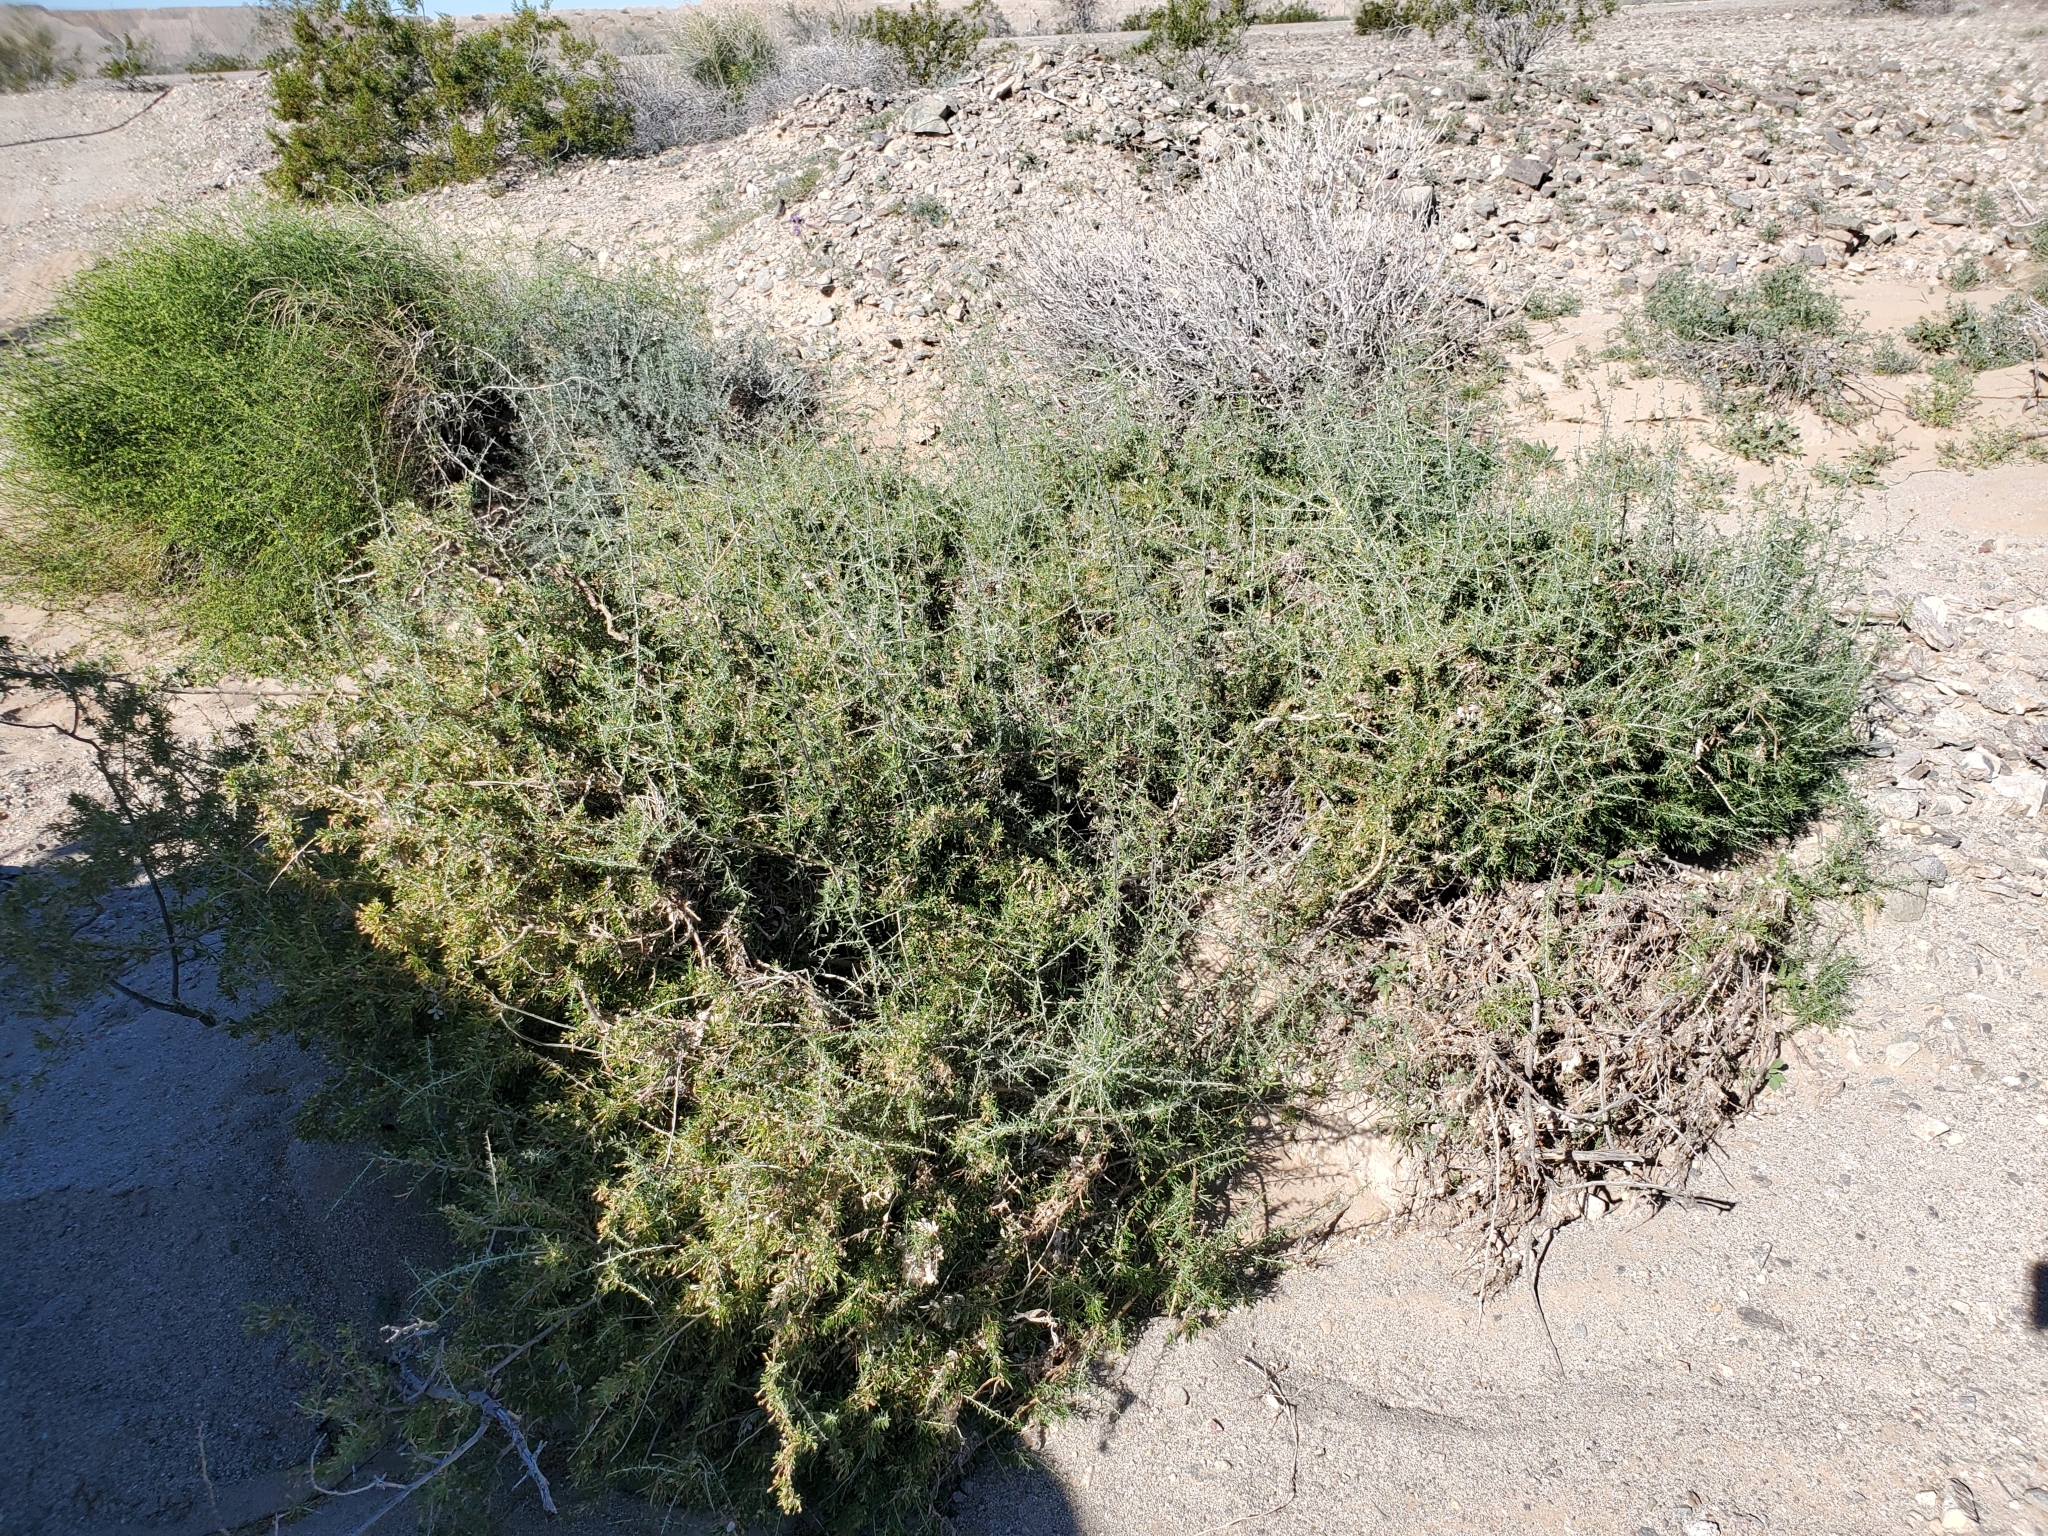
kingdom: Plantae
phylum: Tracheophyta
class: Magnoliopsida
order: Solanales
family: Solanaceae
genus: Lycium
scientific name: Lycium andersonii
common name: Water-jacket
